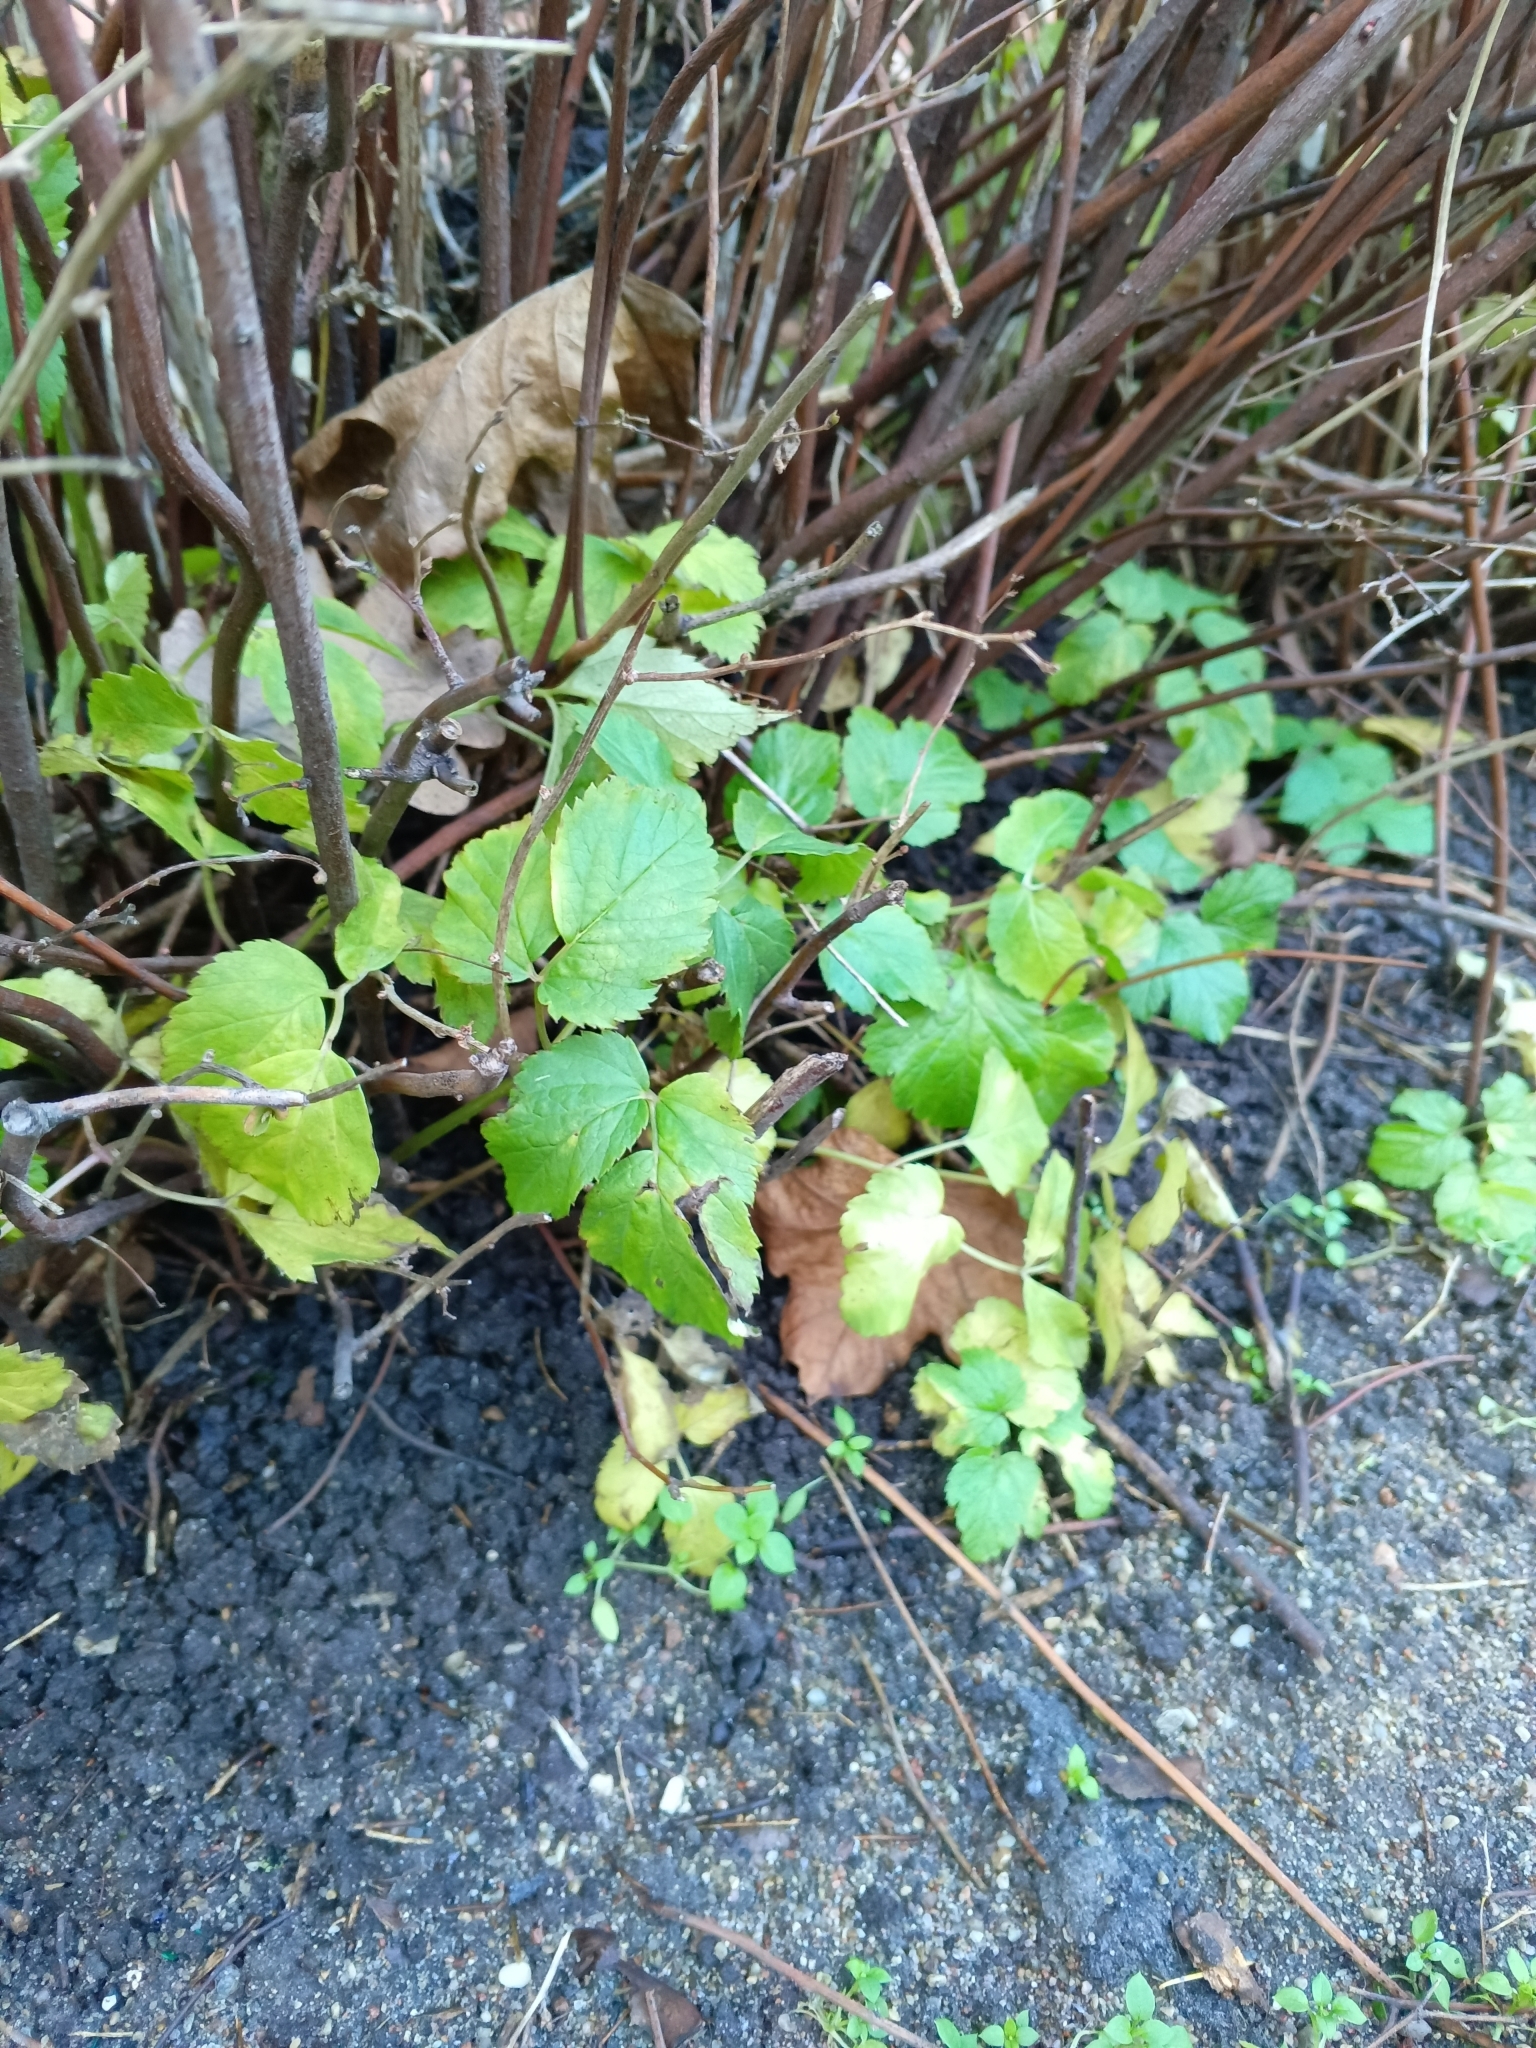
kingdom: Plantae
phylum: Tracheophyta
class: Magnoliopsida
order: Apiales
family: Apiaceae
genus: Aegopodium
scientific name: Aegopodium podagraria
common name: Ground-elder
